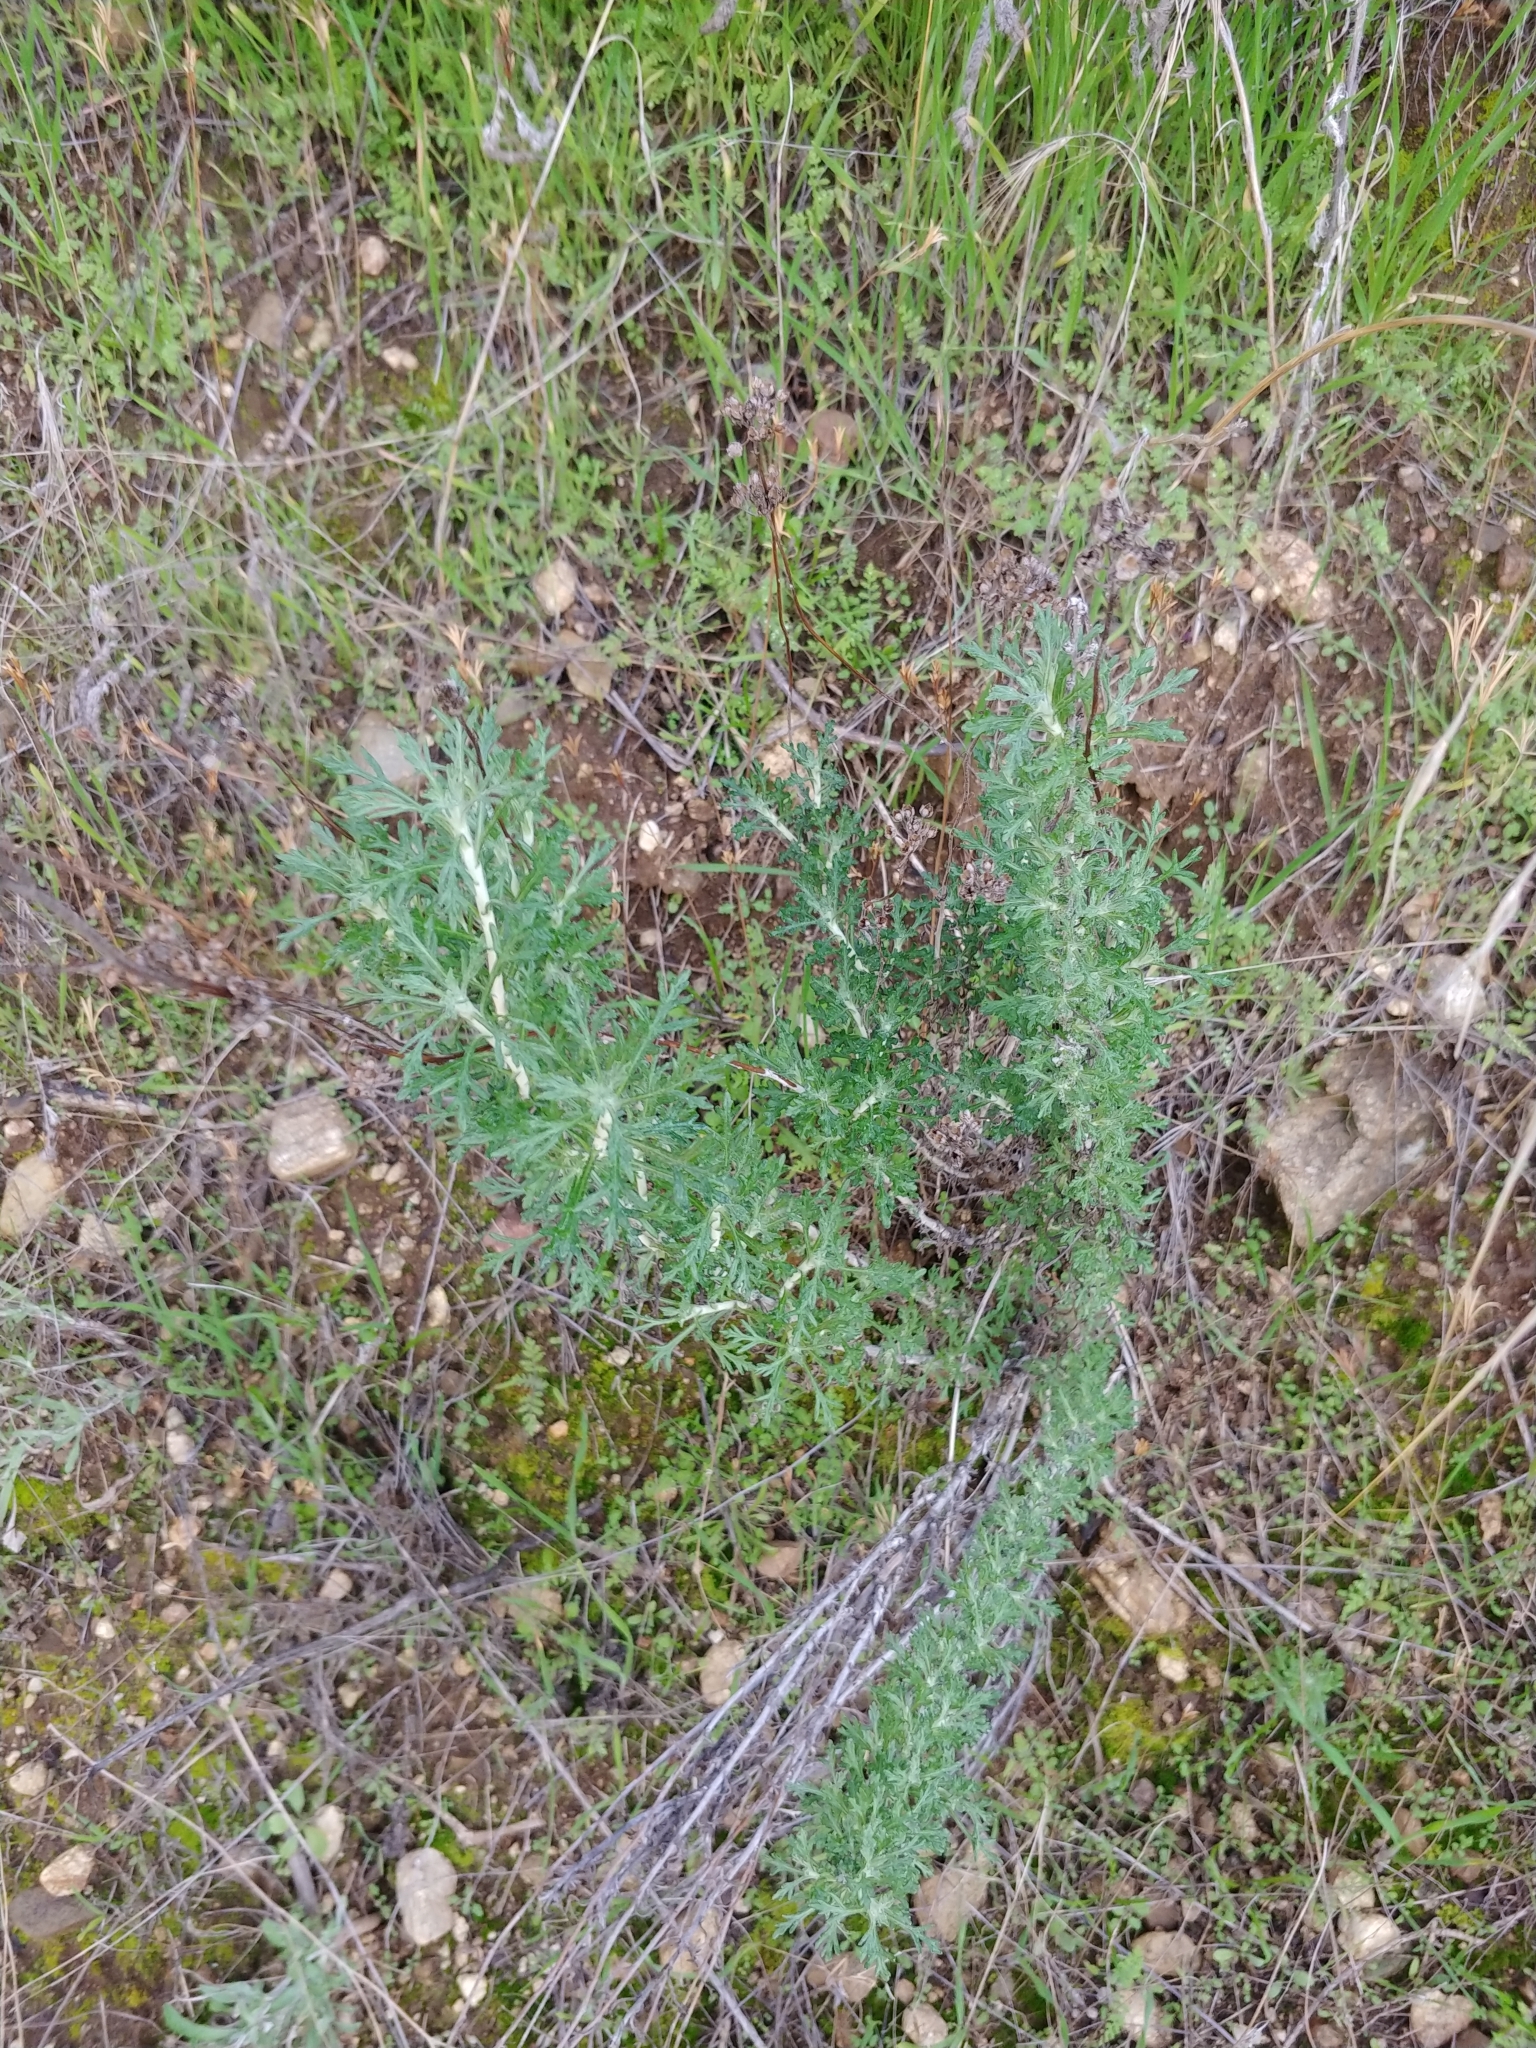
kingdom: Plantae
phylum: Tracheophyta
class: Magnoliopsida
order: Asterales
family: Asteraceae
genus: Eriophyllum
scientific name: Eriophyllum confertiflorum
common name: Golden-yarrow
